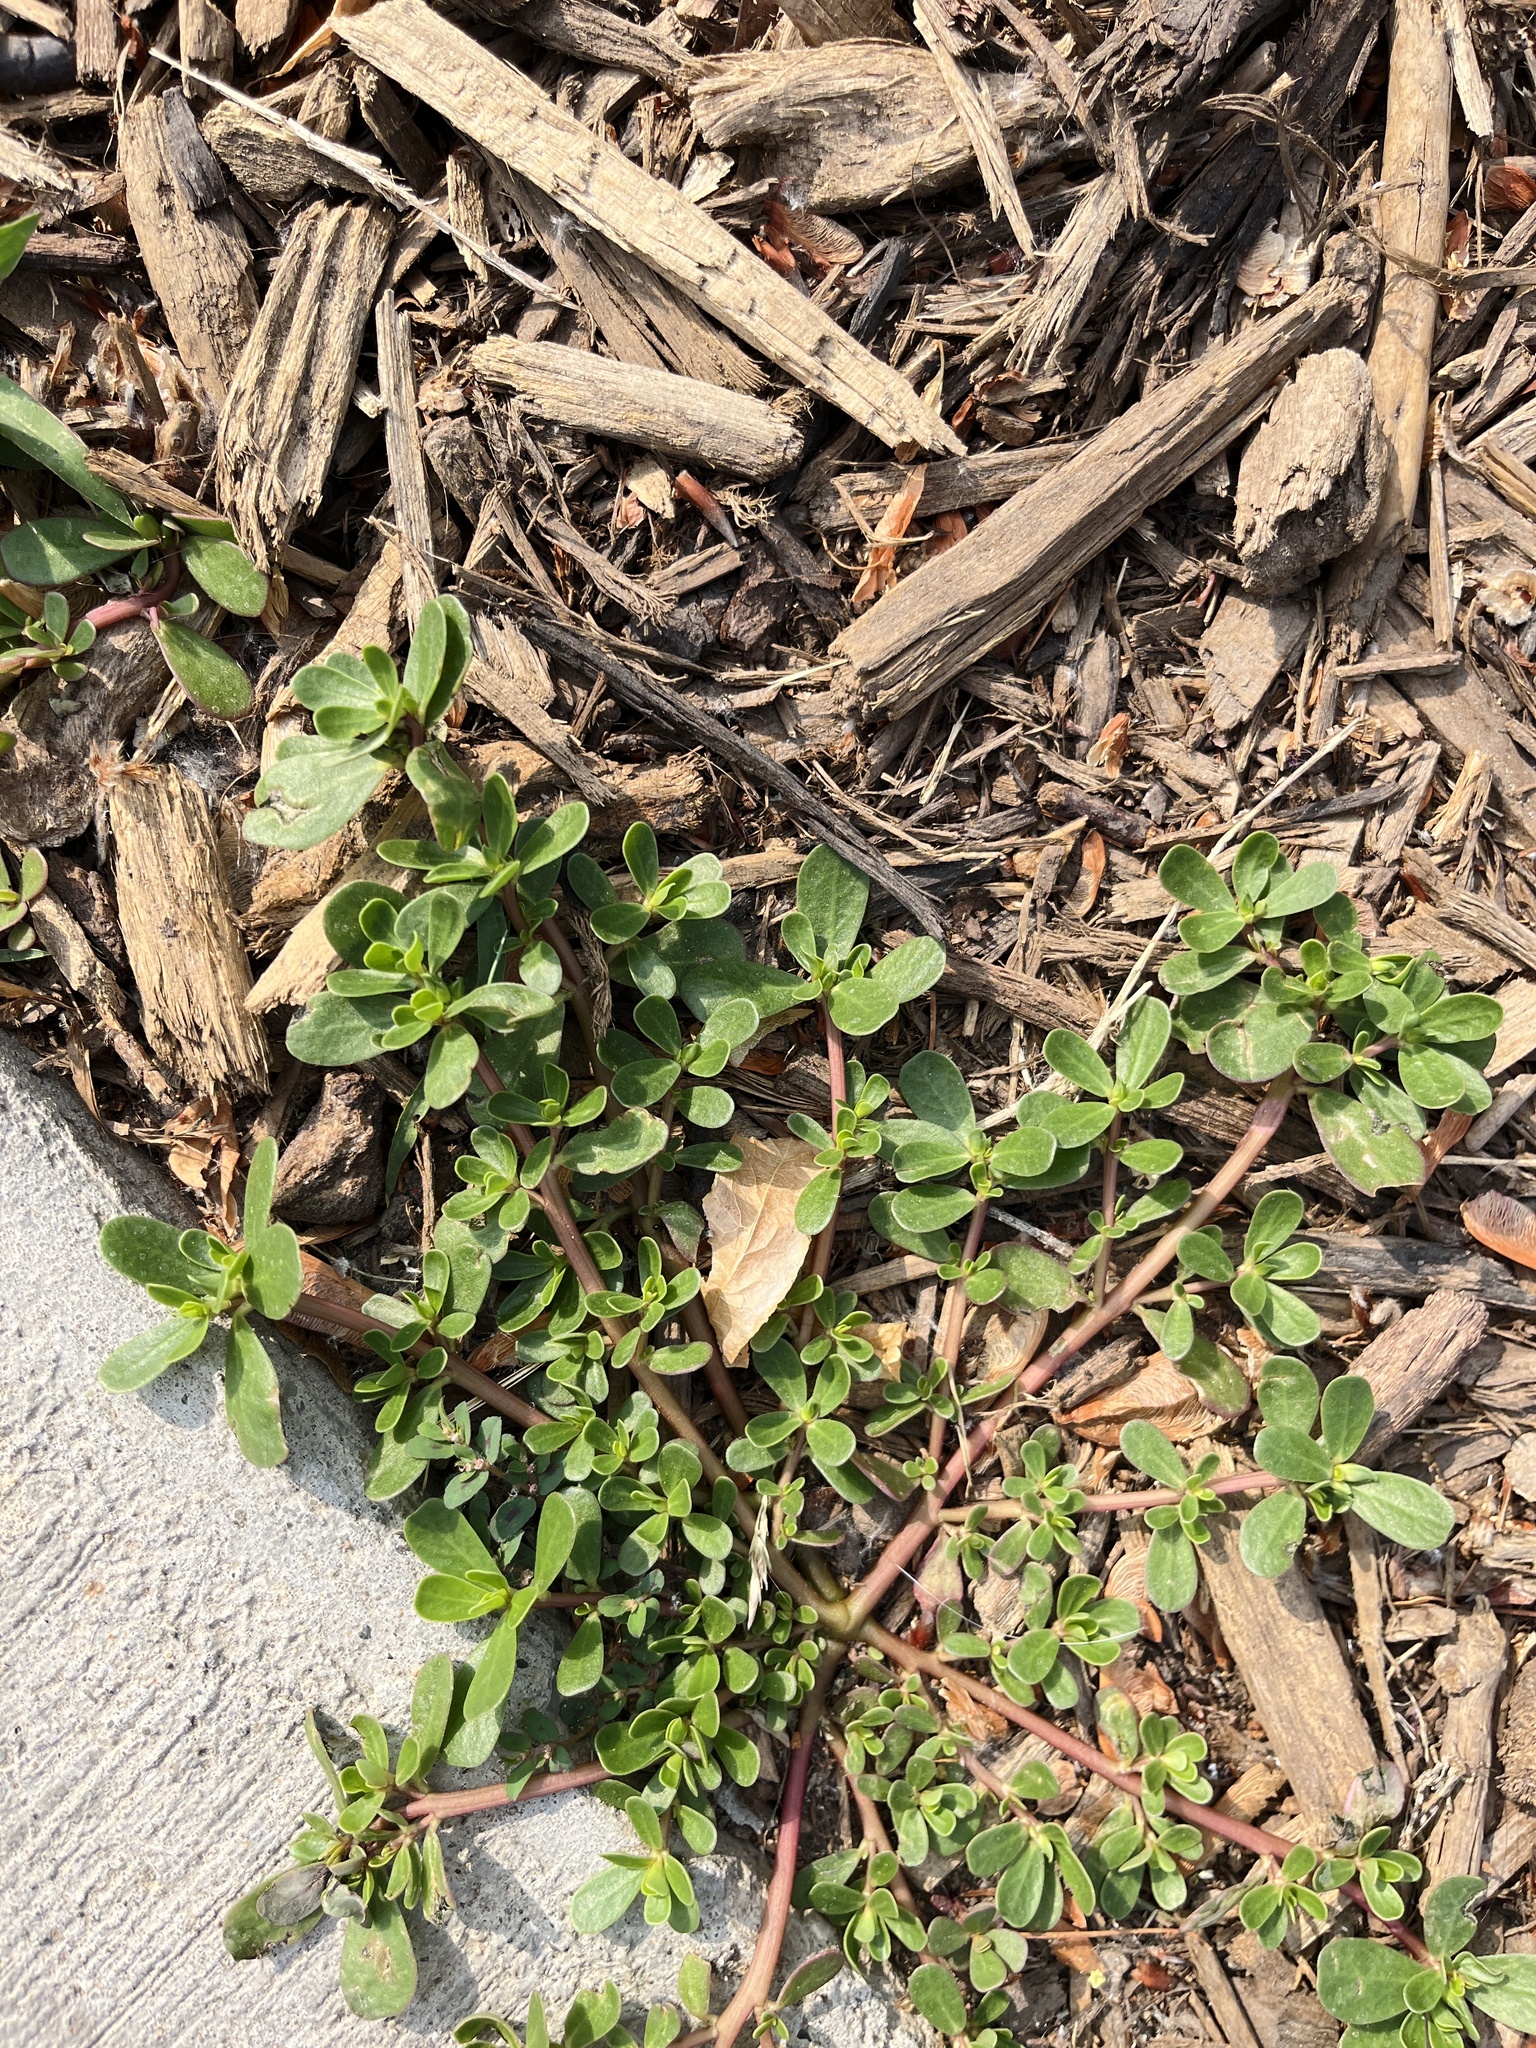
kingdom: Plantae
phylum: Tracheophyta
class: Magnoliopsida
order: Caryophyllales
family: Portulacaceae
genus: Portulaca
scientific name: Portulaca oleracea
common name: Common purslane
